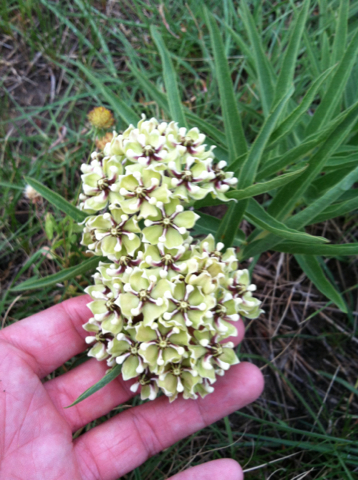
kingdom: Plantae
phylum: Tracheophyta
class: Magnoliopsida
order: Gentianales
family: Apocynaceae
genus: Asclepias
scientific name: Asclepias asperula
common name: Antelope horns
